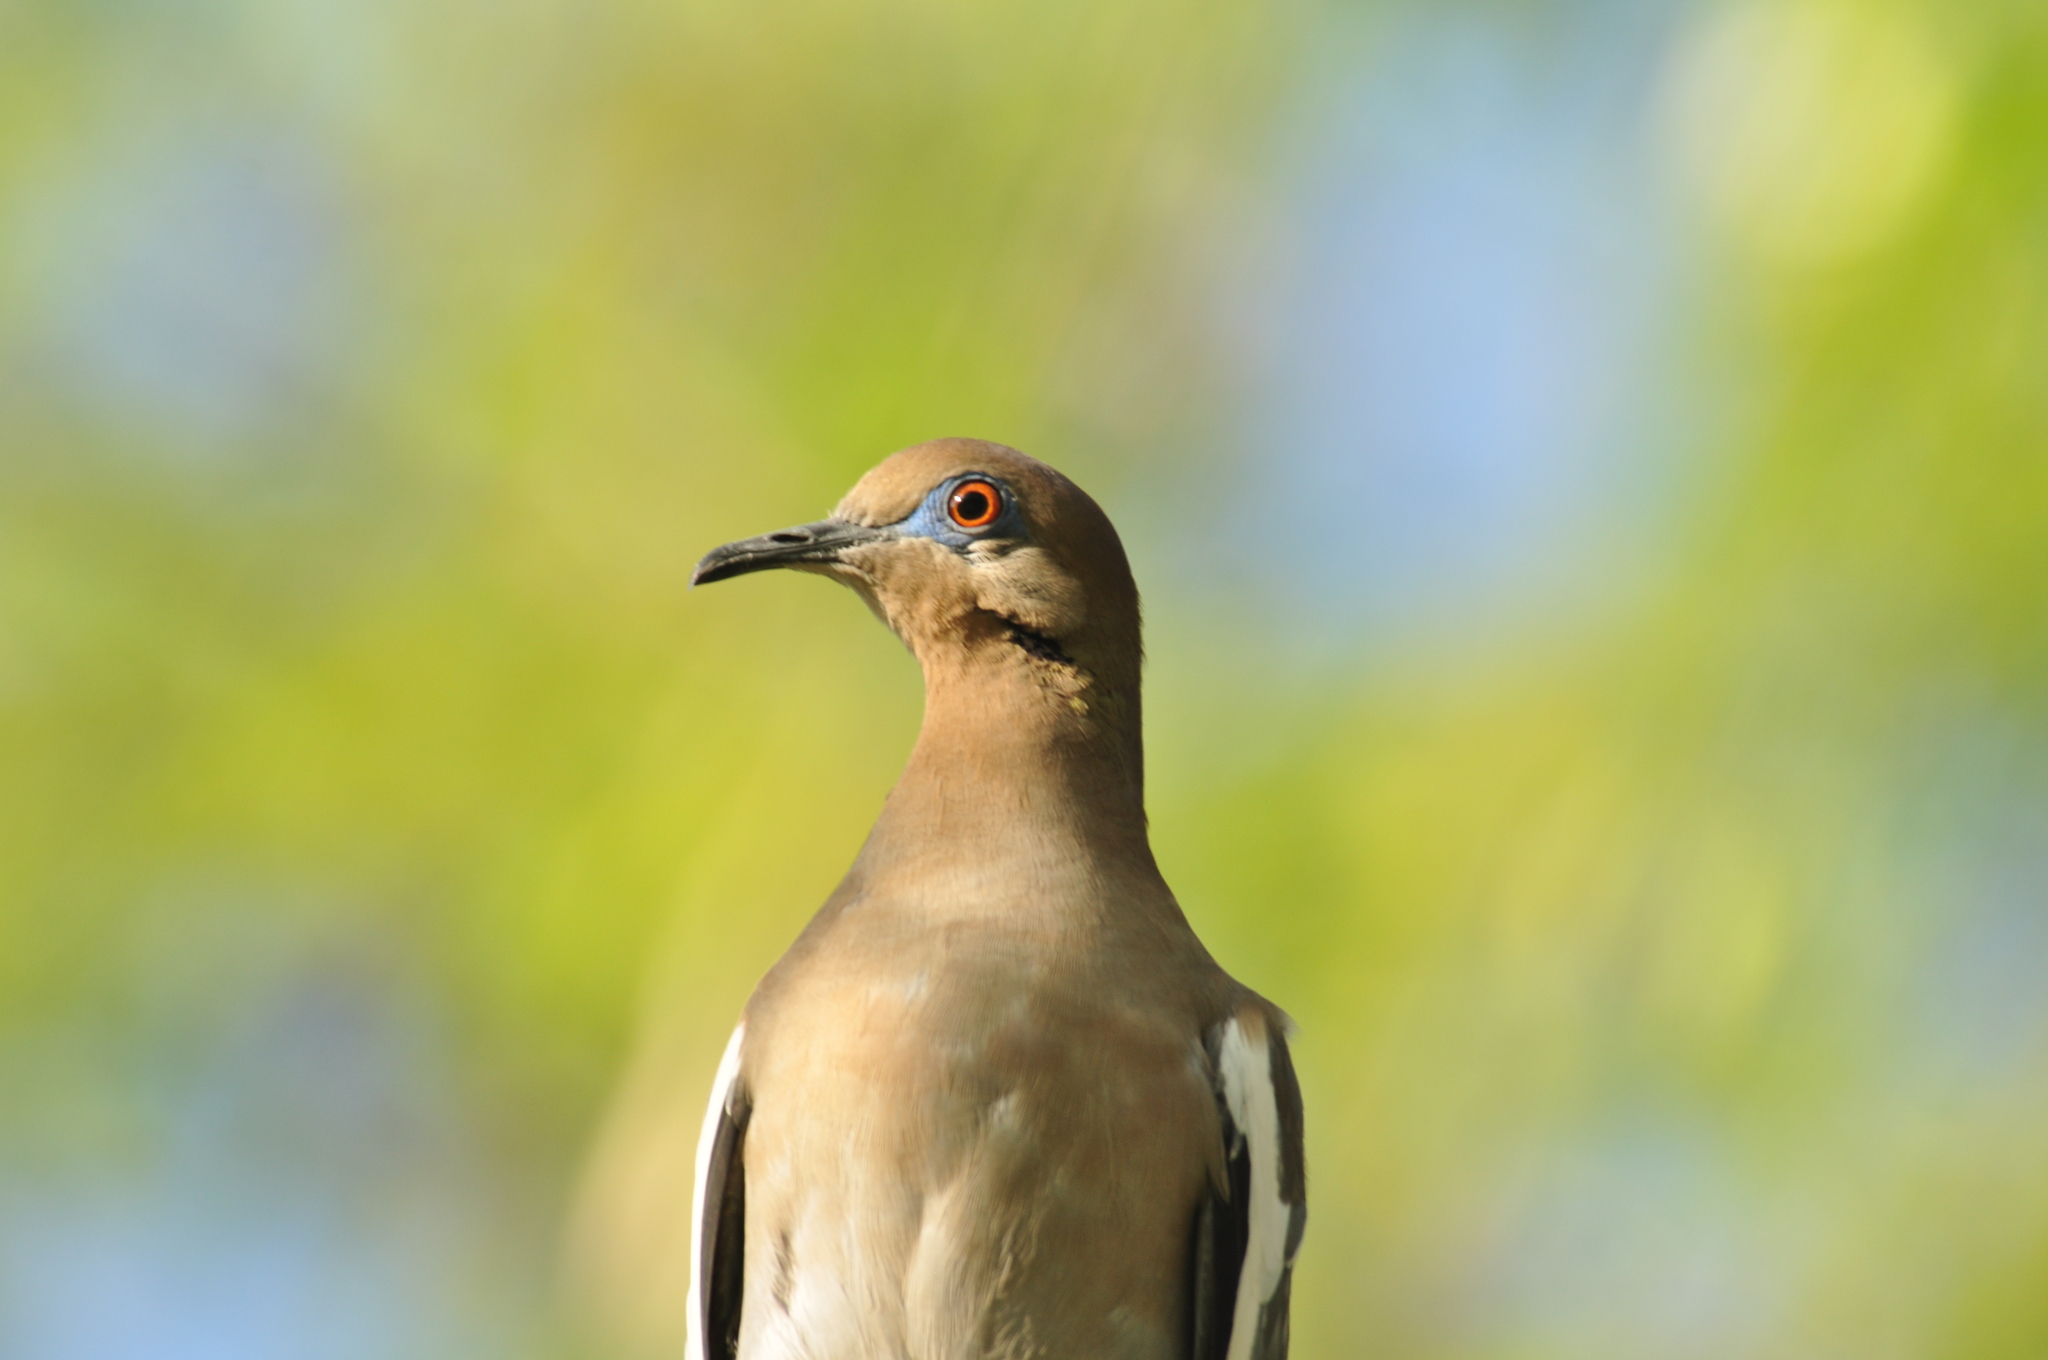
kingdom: Animalia
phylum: Chordata
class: Aves
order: Columbiformes
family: Columbidae
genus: Zenaida
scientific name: Zenaida asiatica
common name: White-winged dove
